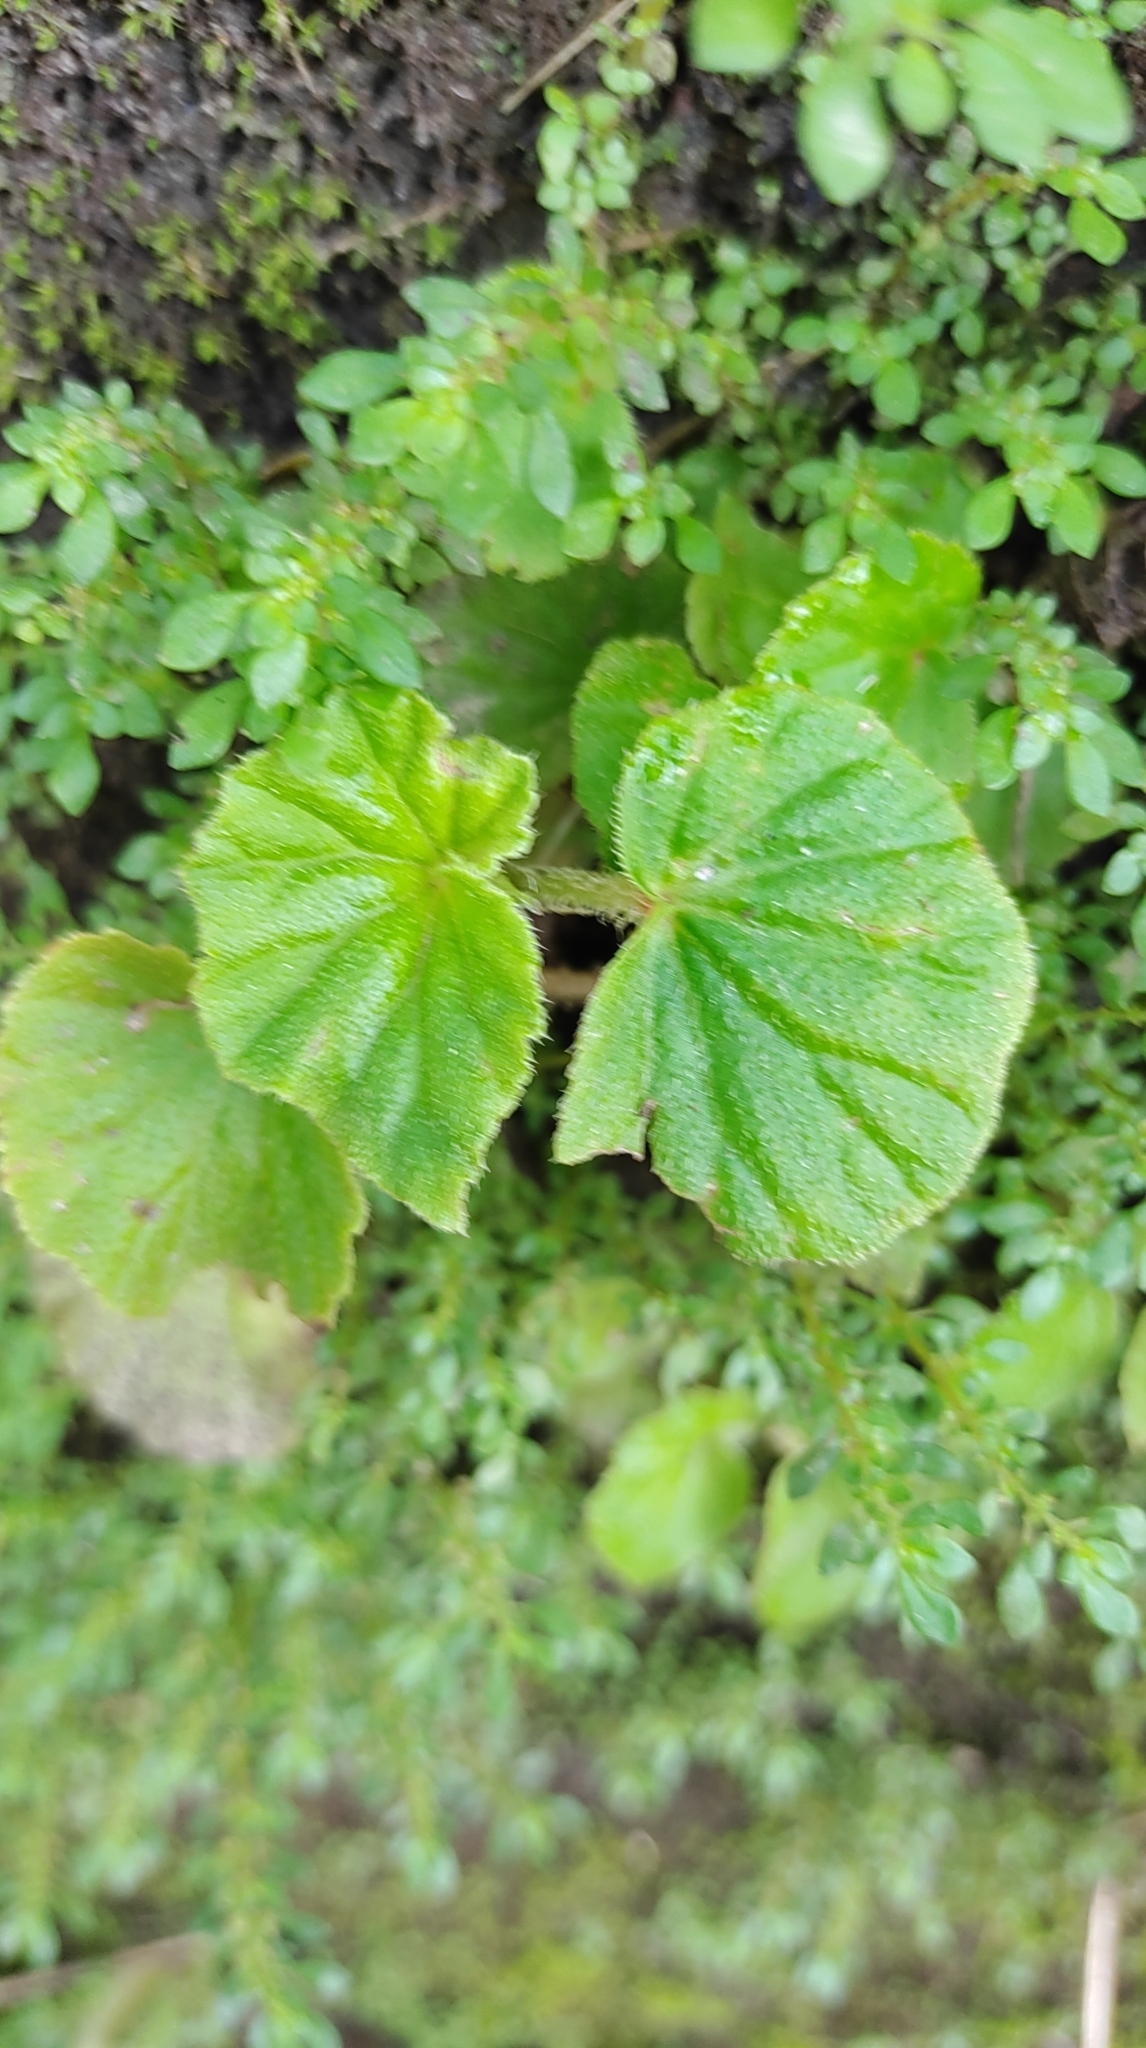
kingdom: Plantae
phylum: Tracheophyta
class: Magnoliopsida
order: Cucurbitales
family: Begoniaceae
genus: Begonia
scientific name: Begonia hirtella
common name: Brazilian begonia
